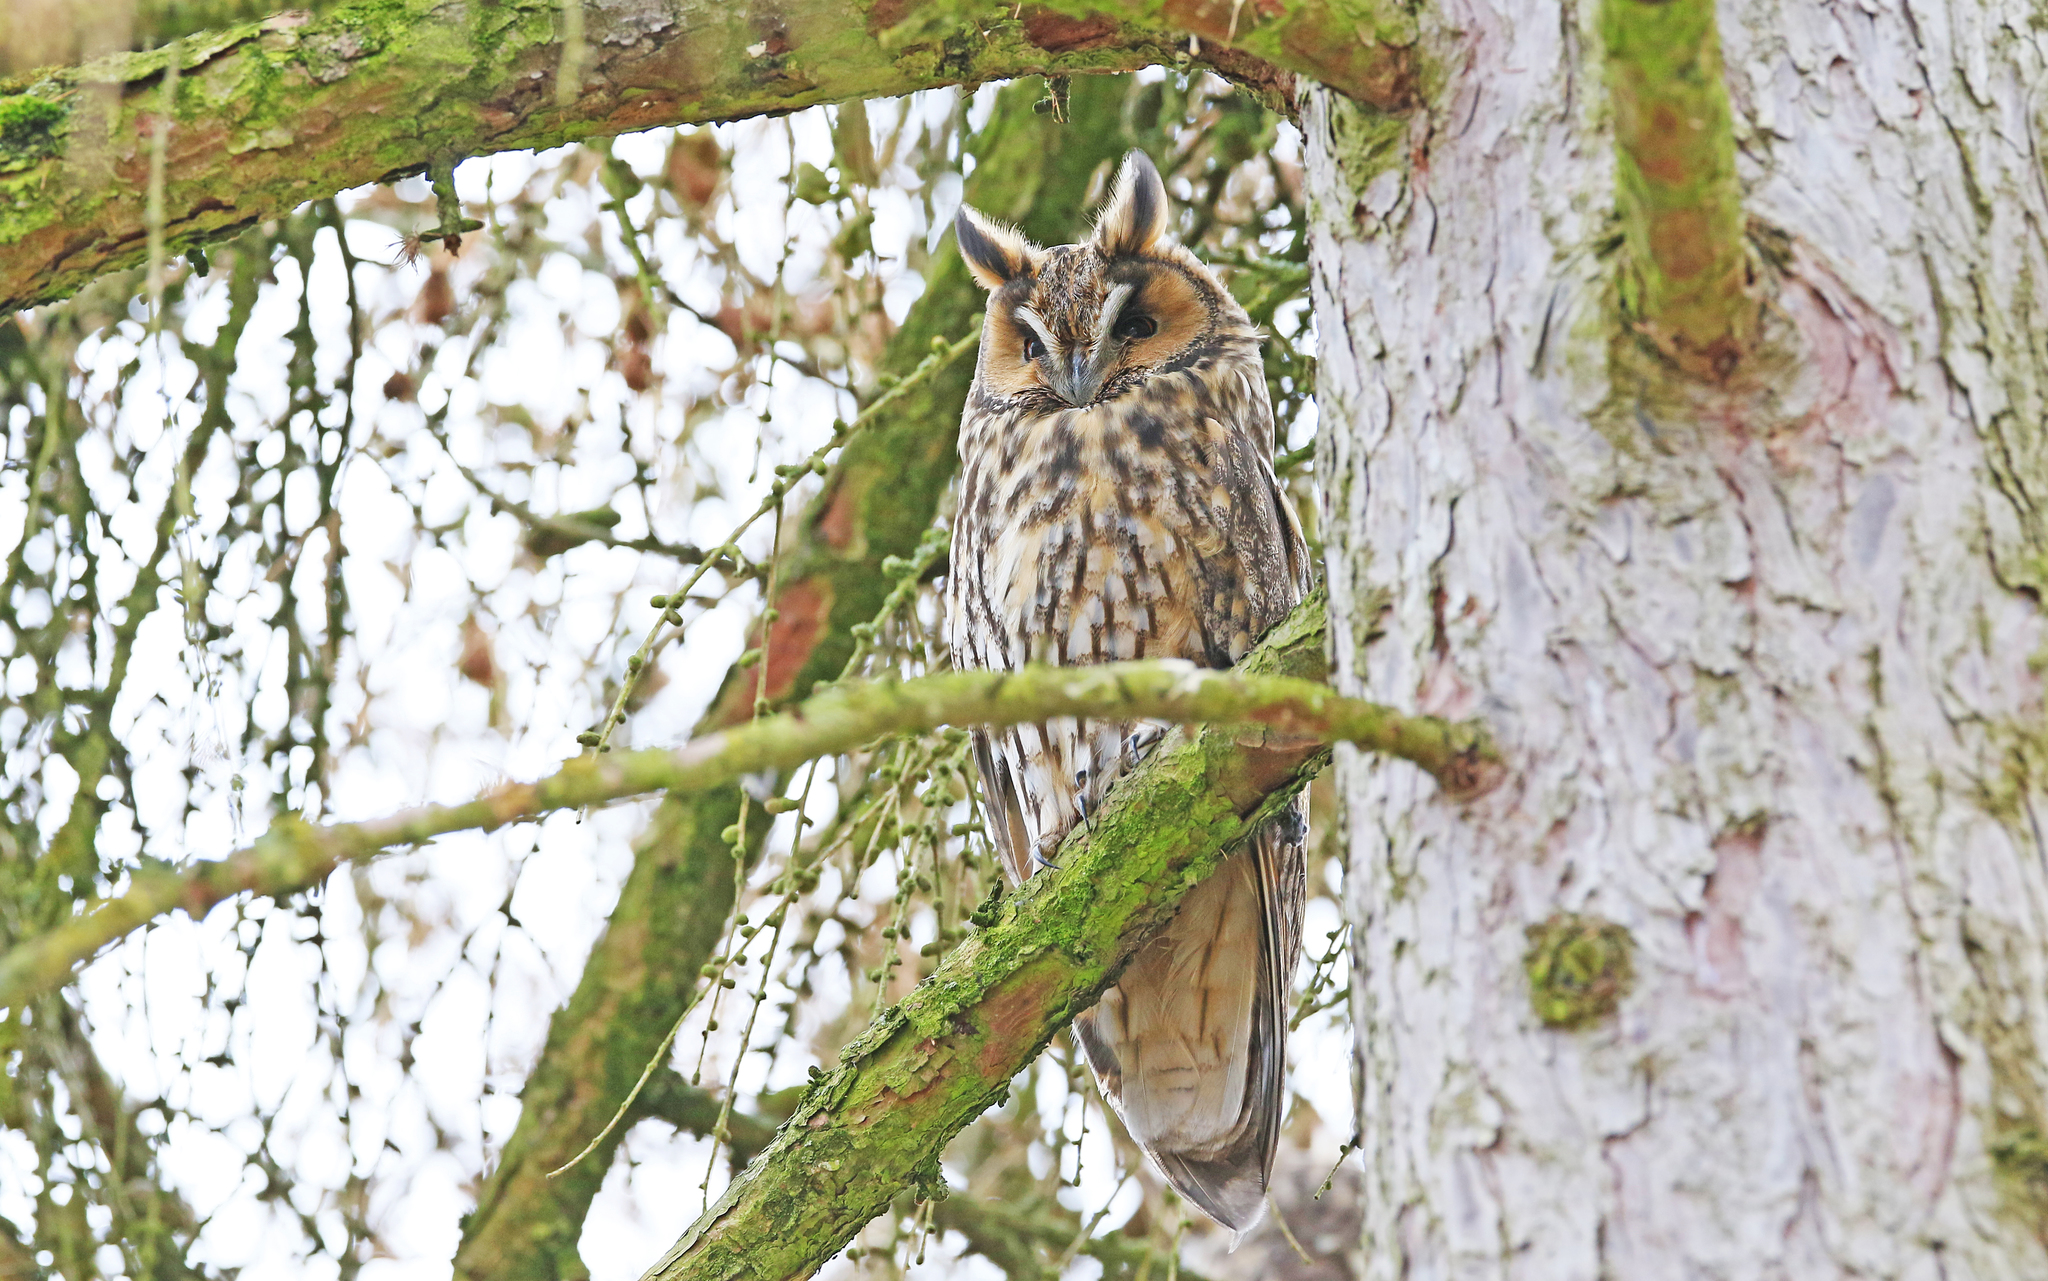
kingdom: Animalia
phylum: Chordata
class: Aves
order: Strigiformes
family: Strigidae
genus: Asio
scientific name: Asio otus
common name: Long-eared owl
